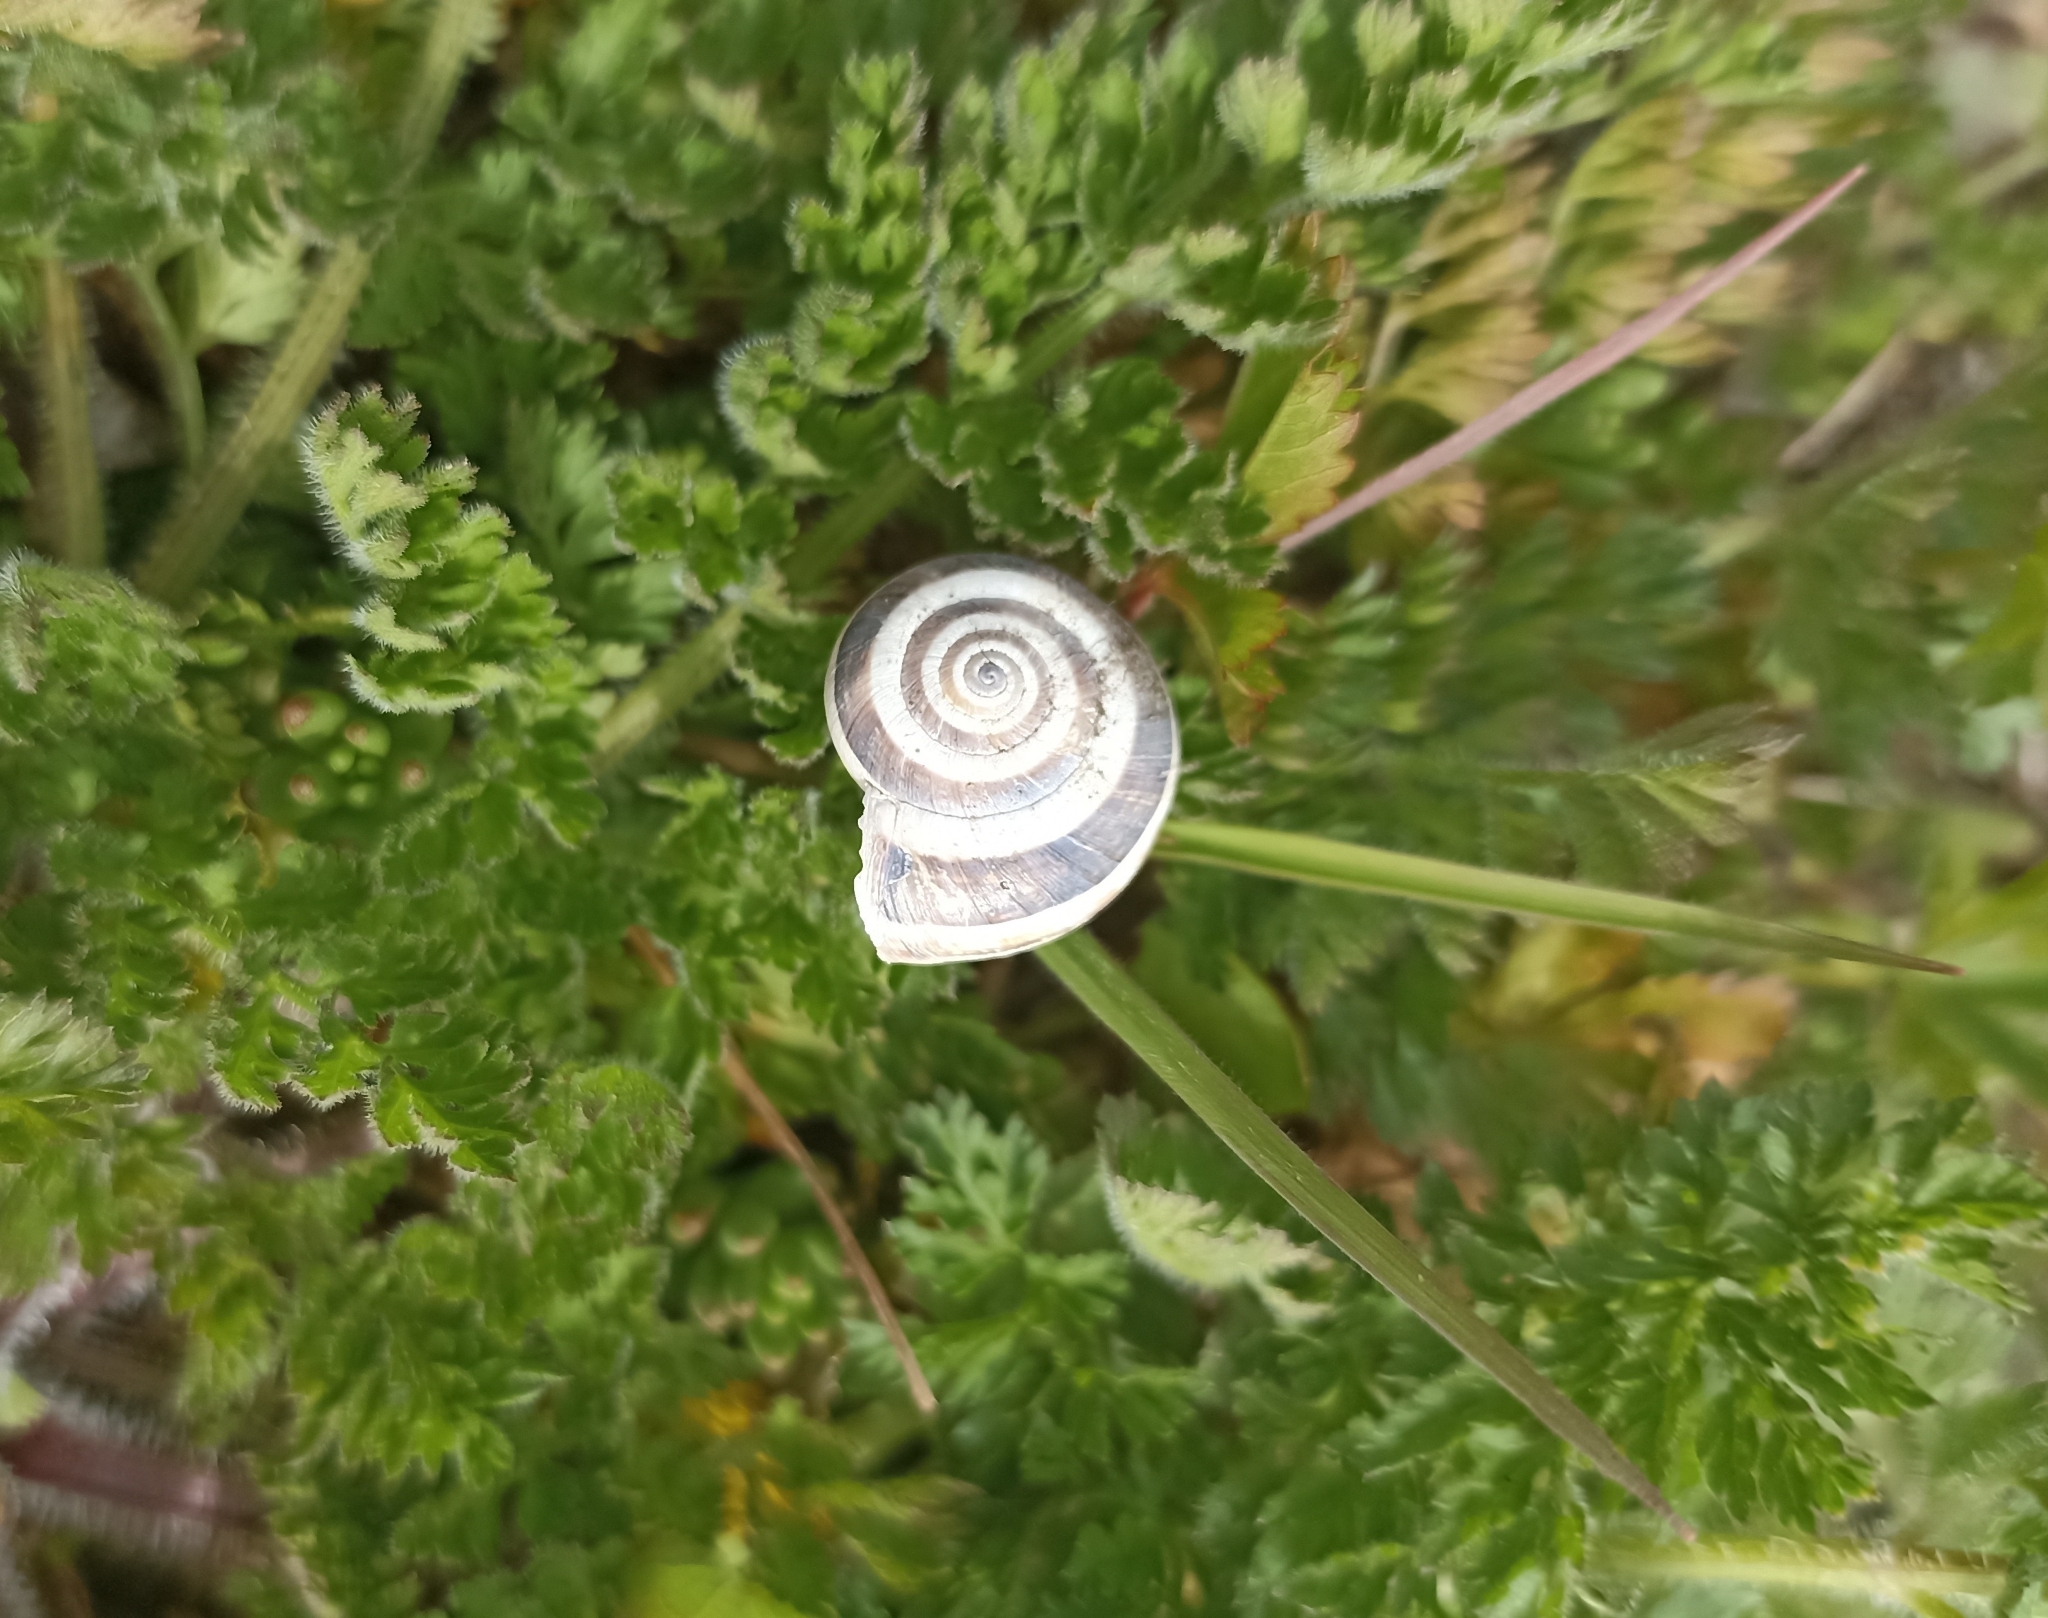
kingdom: Animalia
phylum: Mollusca
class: Gastropoda
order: Stylommatophora
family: Geomitridae
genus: Xerosecta
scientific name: Xerosecta arigonis
